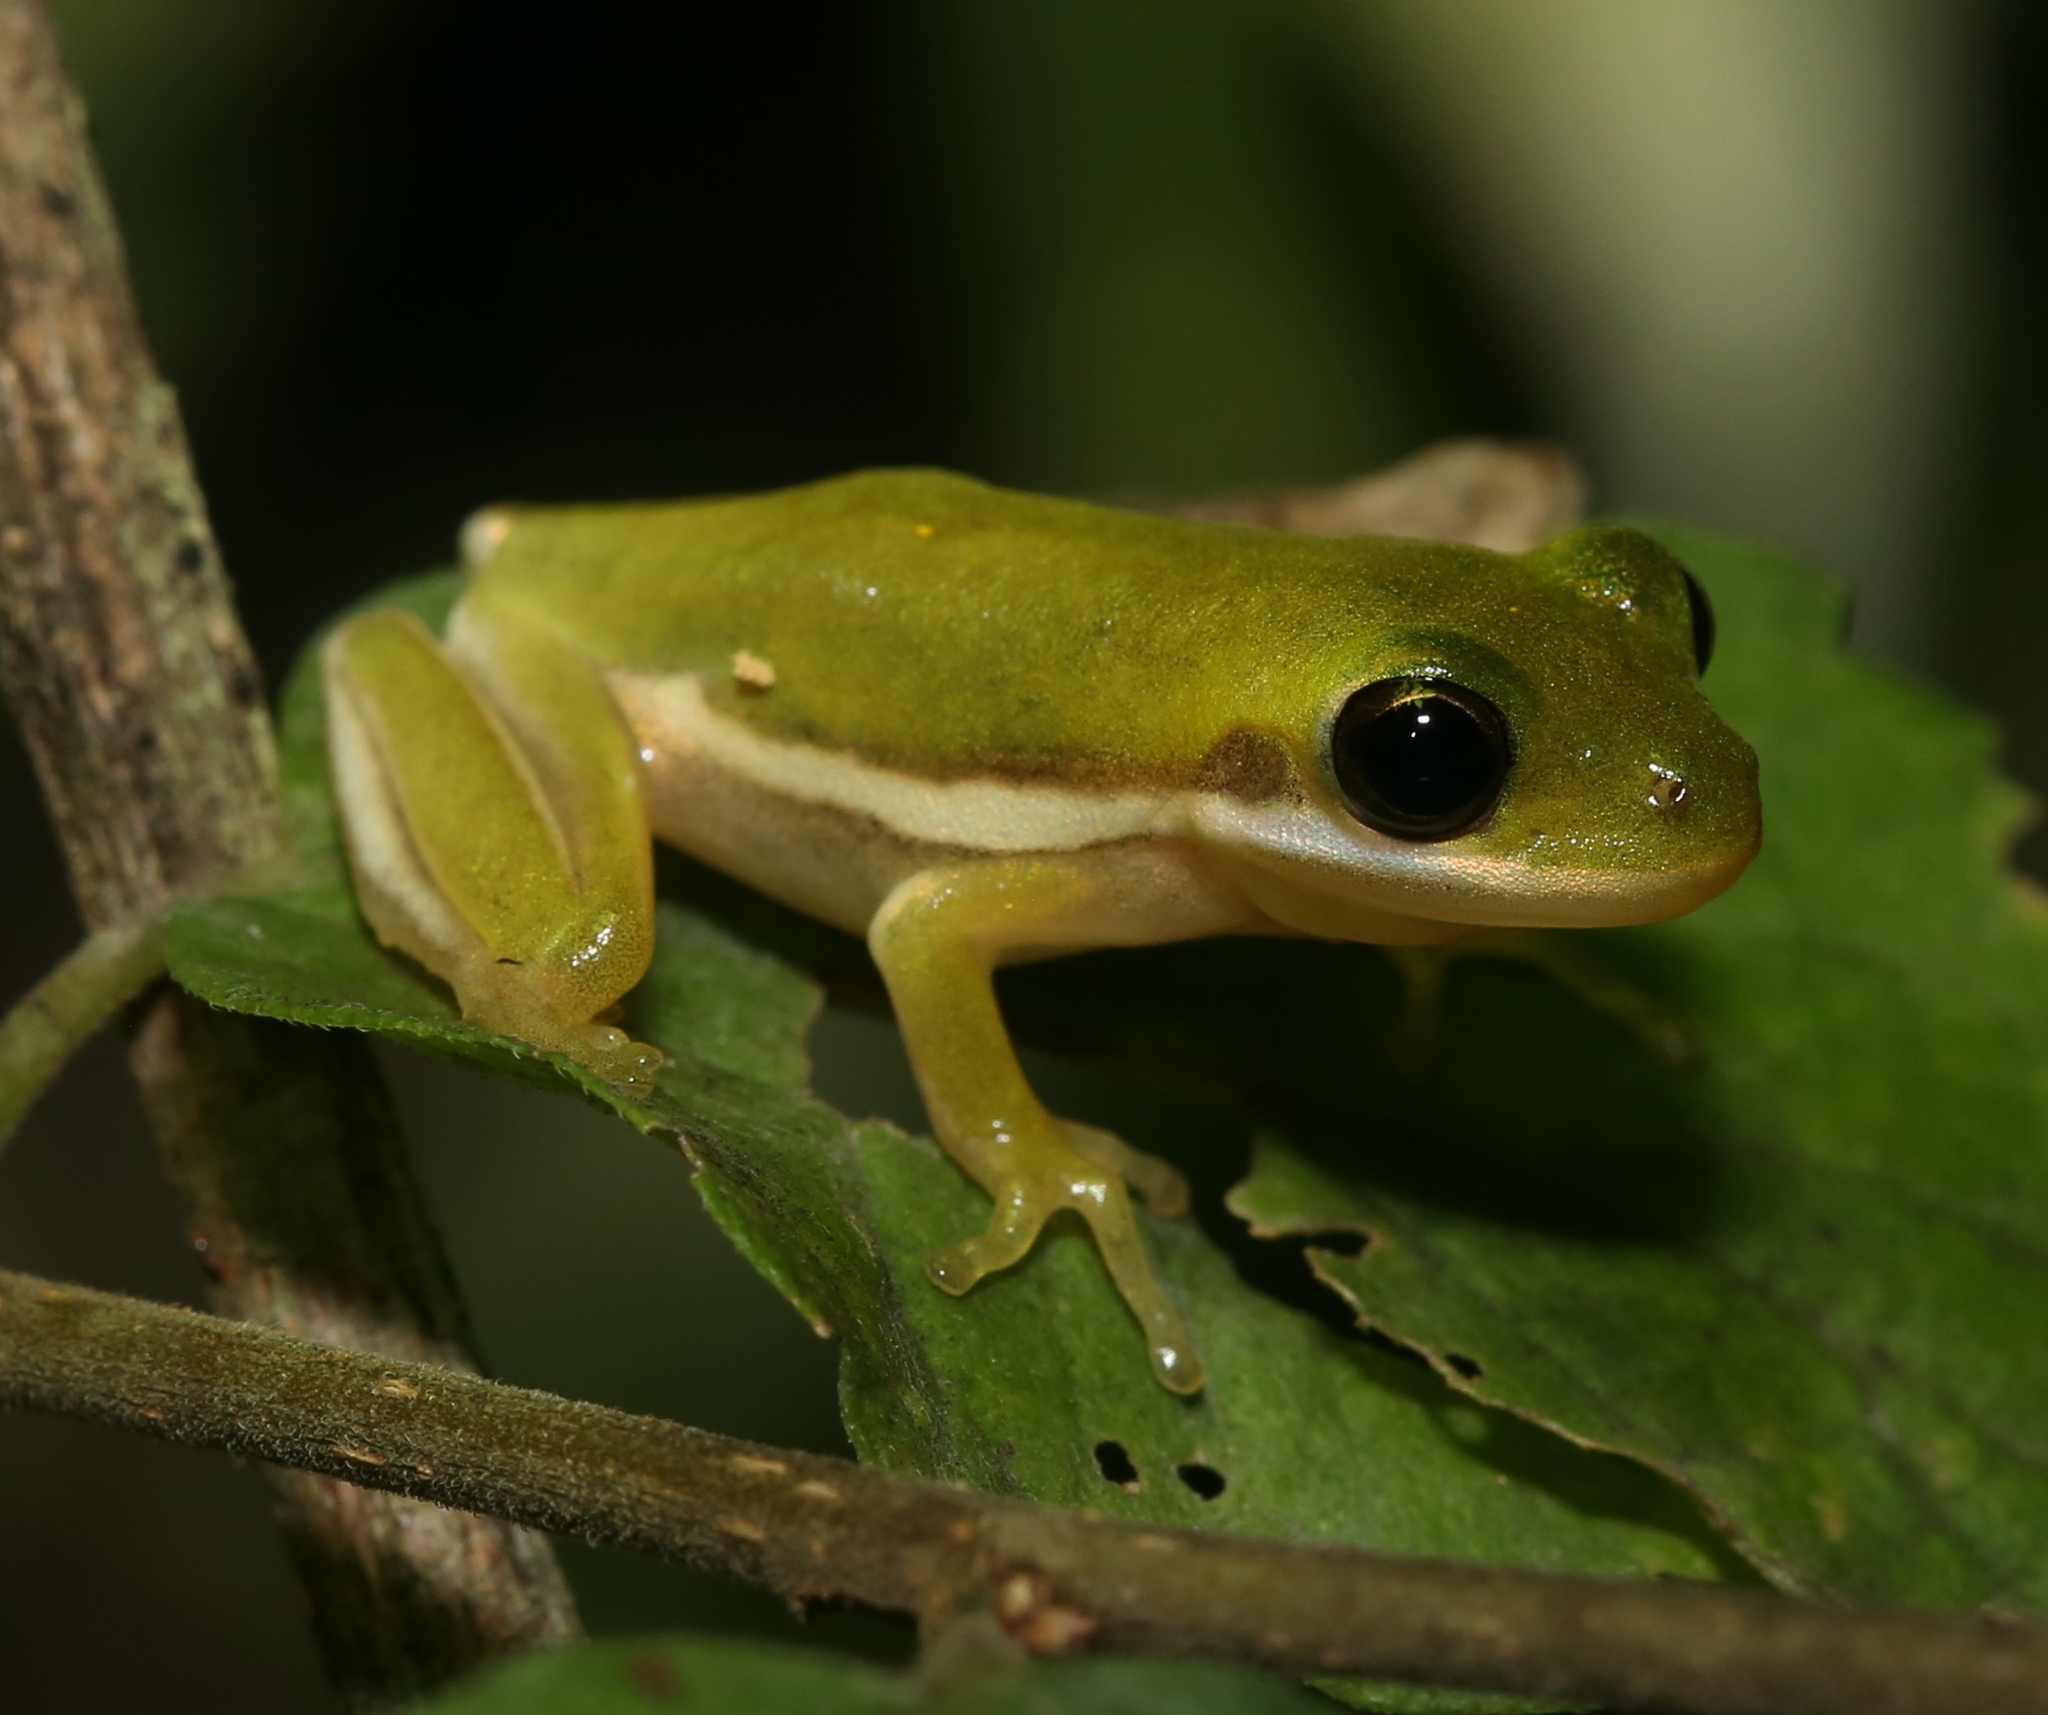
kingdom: Animalia
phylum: Chordata
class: Amphibia
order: Anura
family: Hylidae
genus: Dryophytes
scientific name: Dryophytes cinereus
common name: Green treefrog
